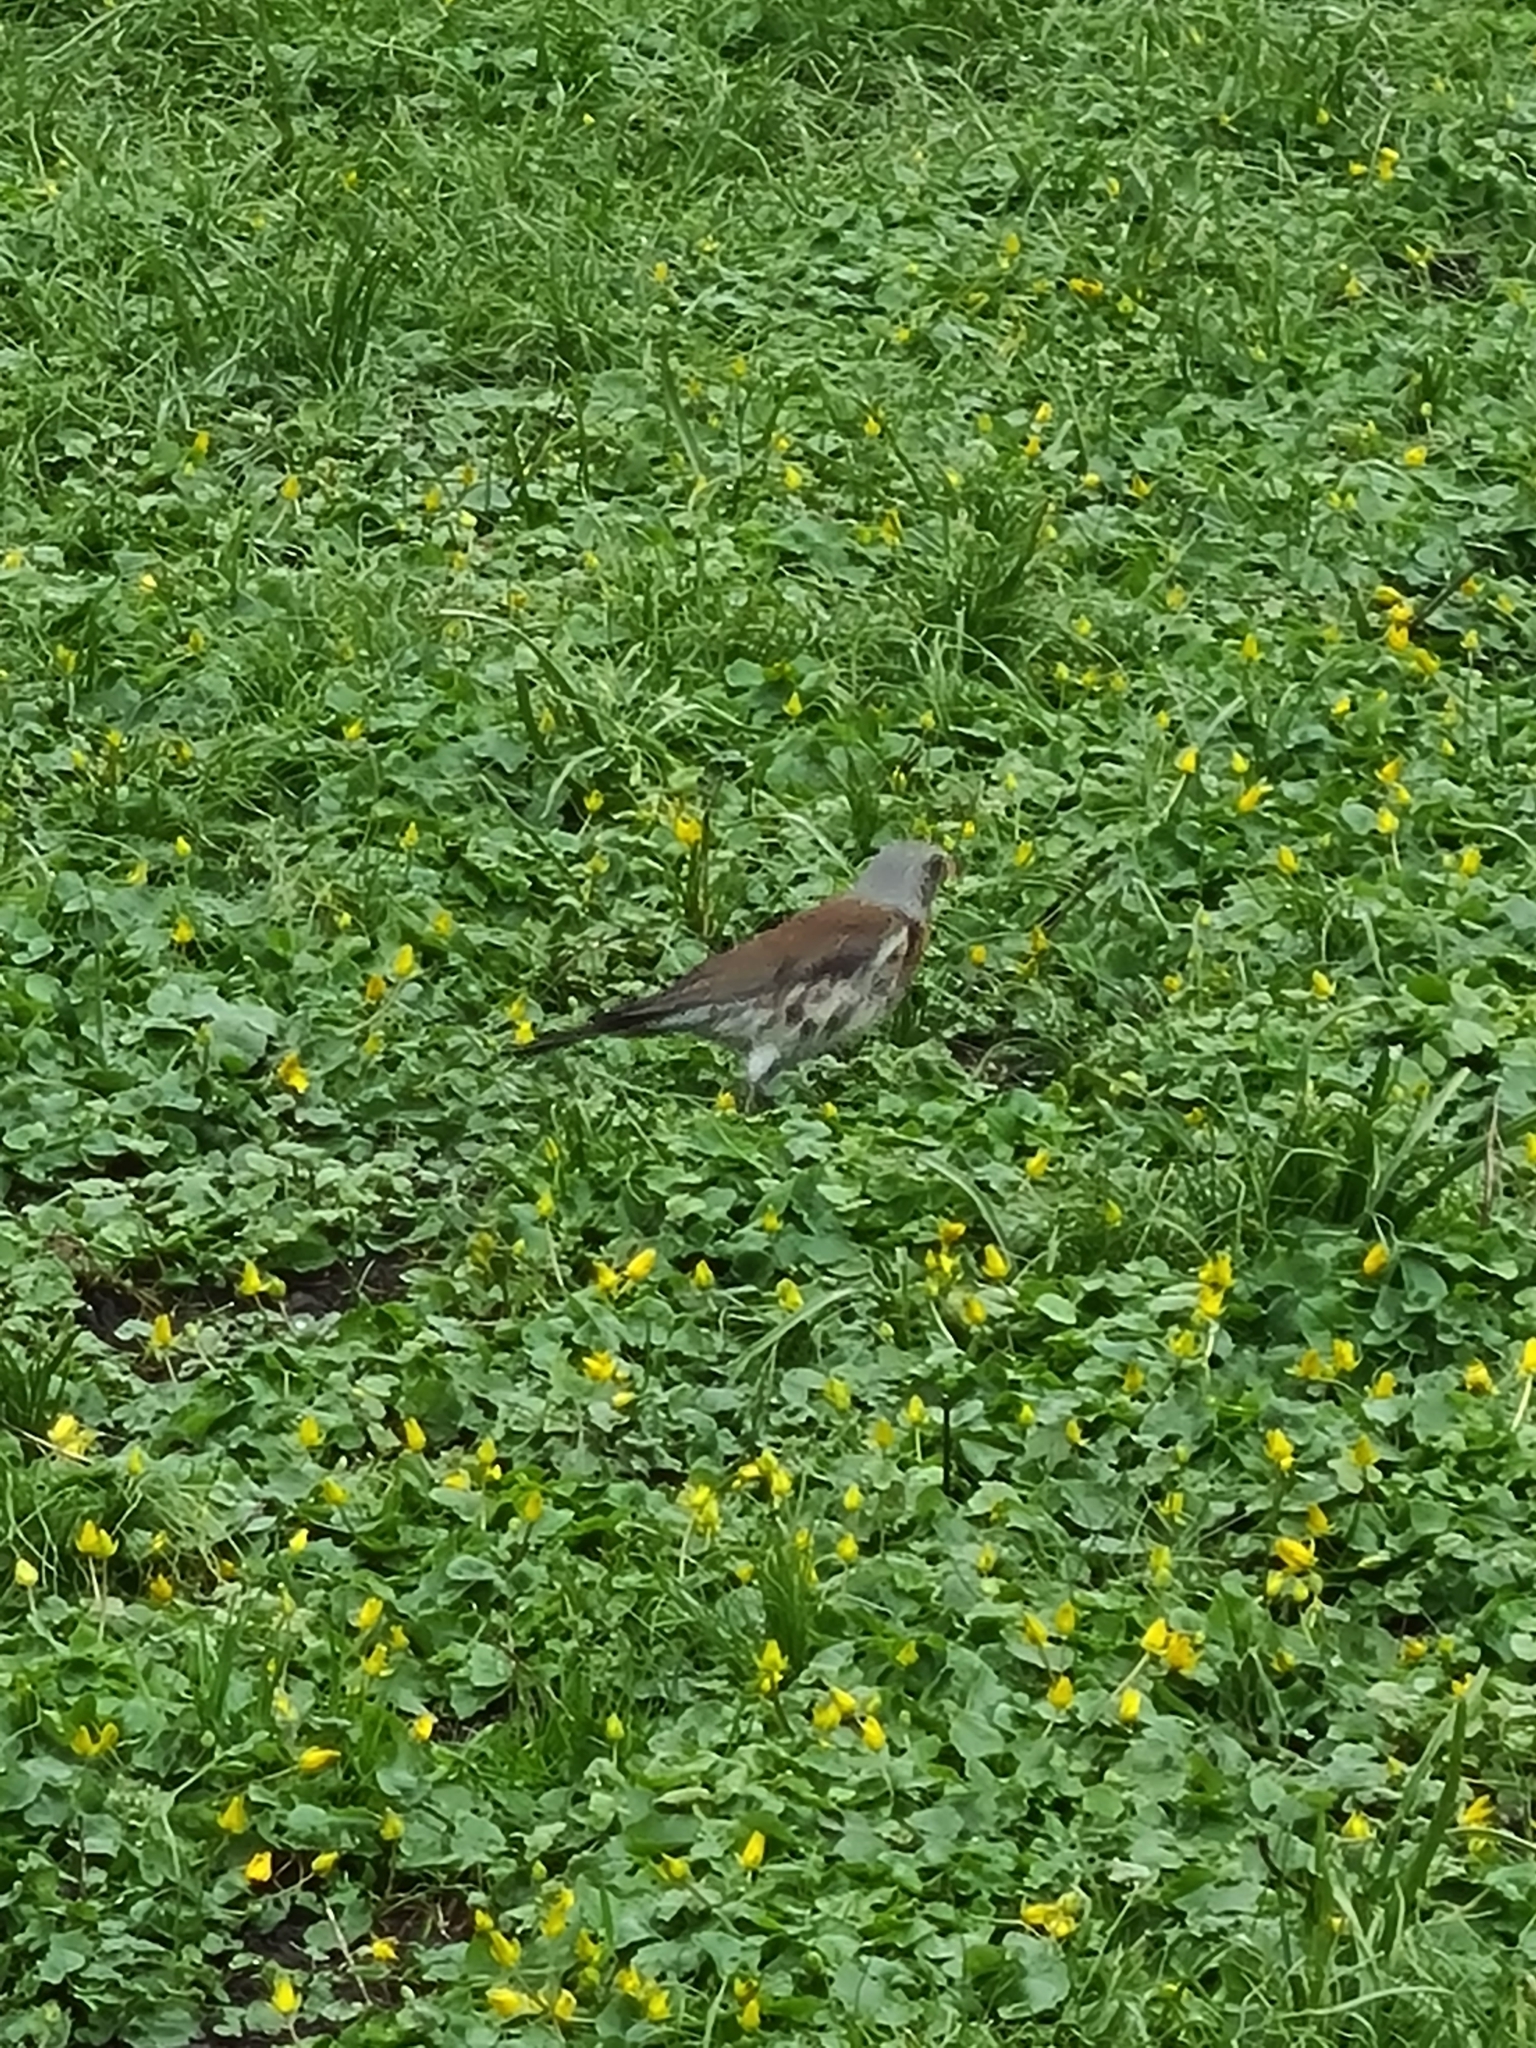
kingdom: Animalia
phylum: Chordata
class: Aves
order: Passeriformes
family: Turdidae
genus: Turdus
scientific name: Turdus pilaris
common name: Fieldfare
